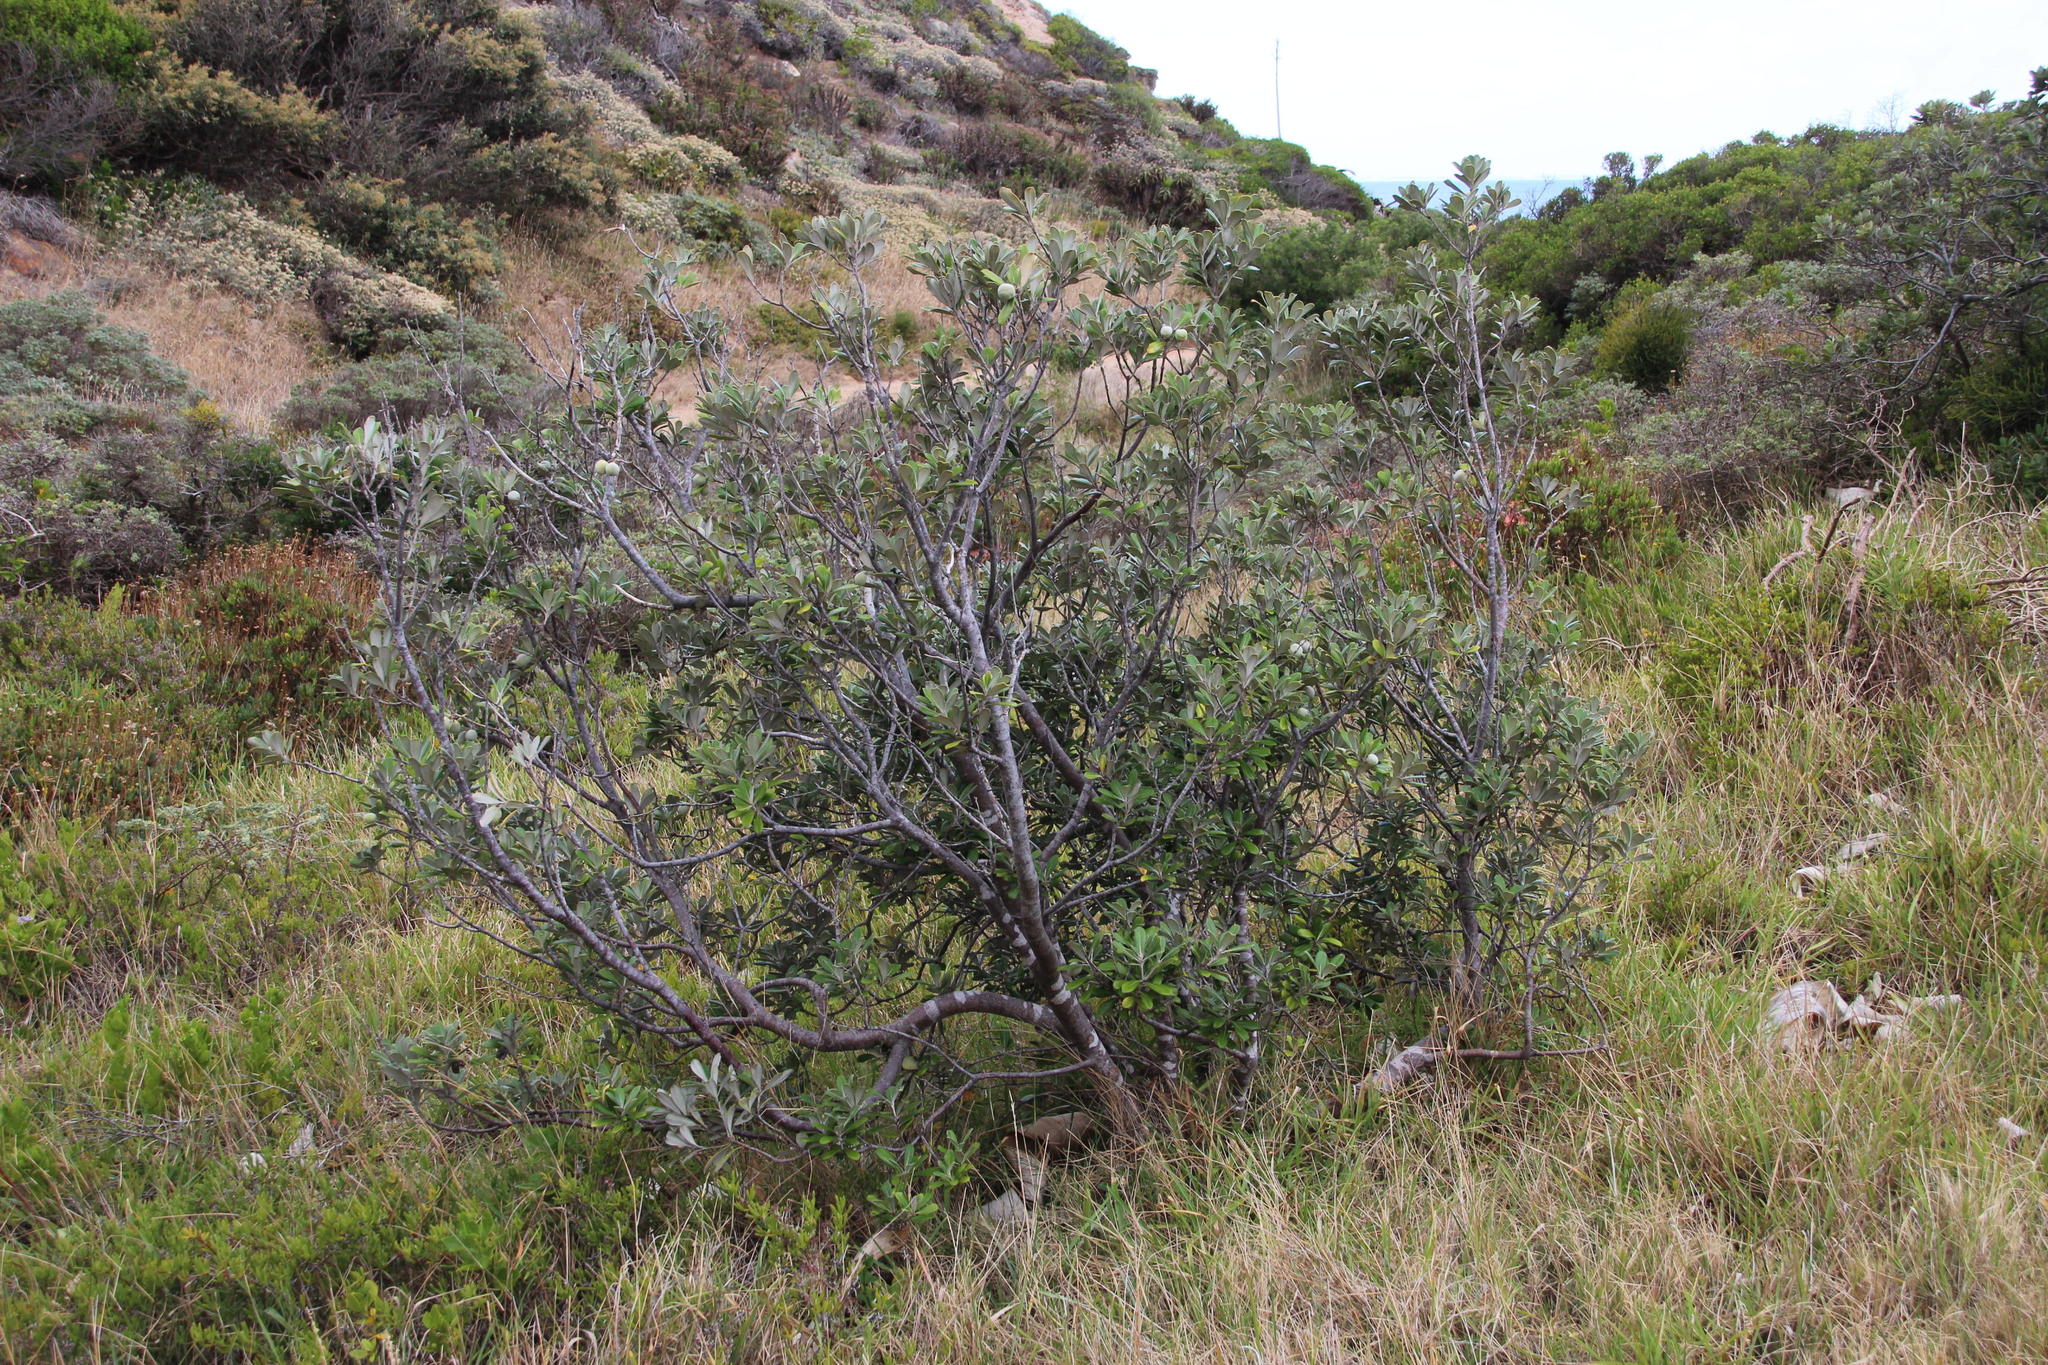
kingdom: Plantae
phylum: Tracheophyta
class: Magnoliopsida
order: Apiales
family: Pittosporaceae
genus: Pittosporum
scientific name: Pittosporum crassifolium
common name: Karo
